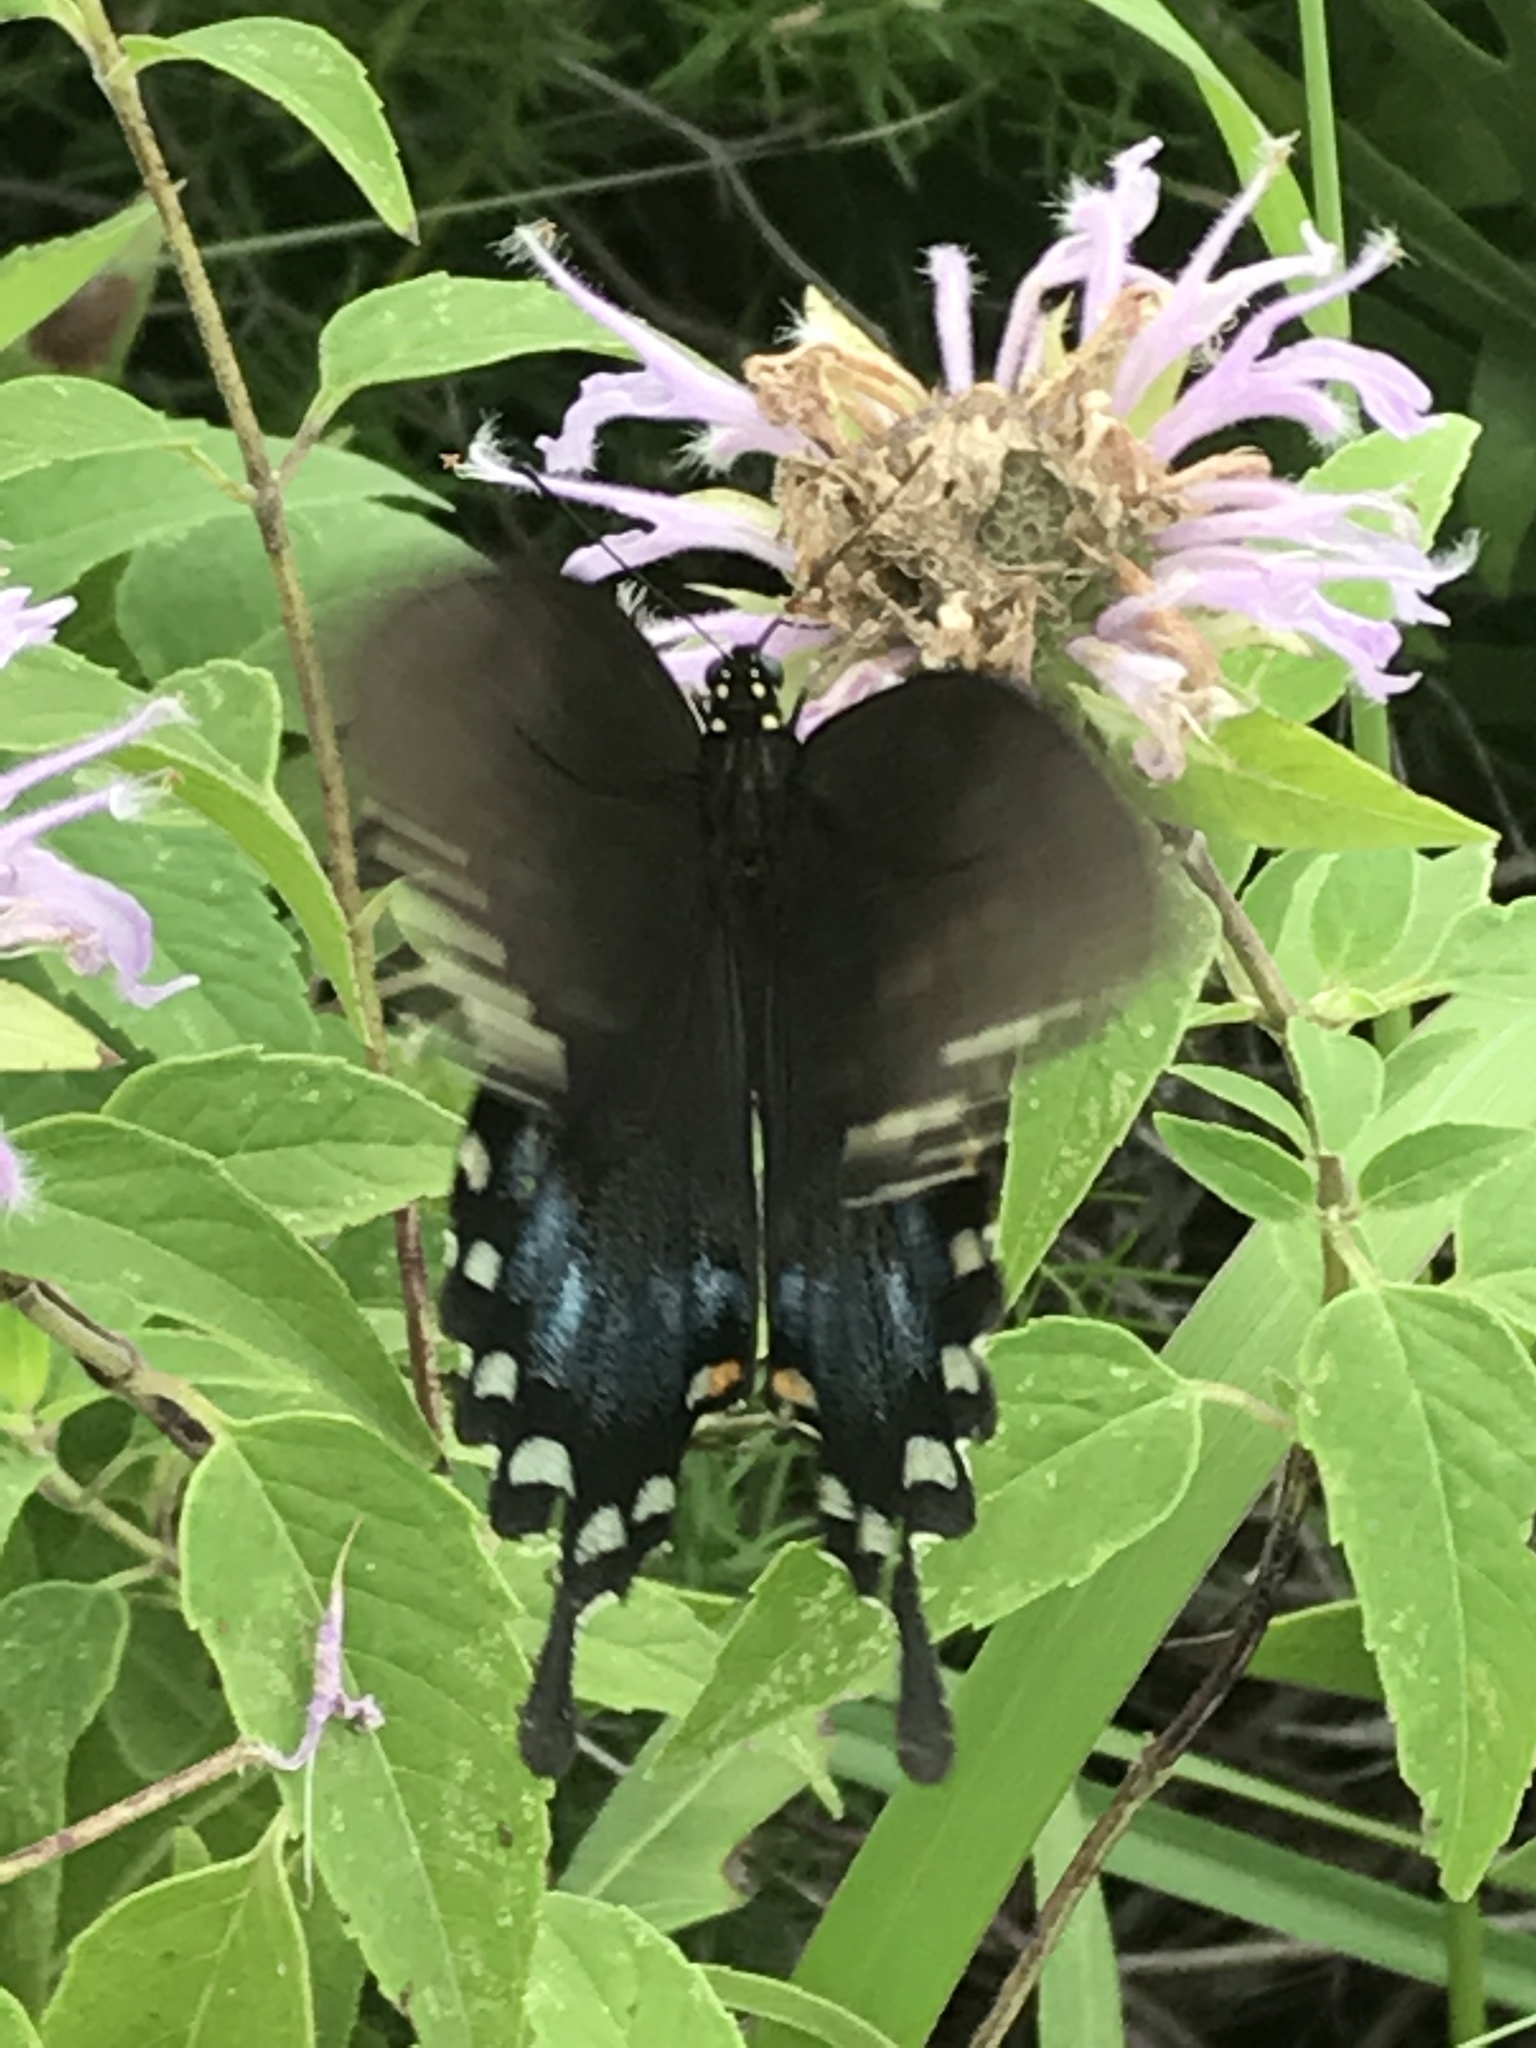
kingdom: Animalia
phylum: Arthropoda
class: Insecta
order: Lepidoptera
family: Papilionidae
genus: Papilio
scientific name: Papilio troilus
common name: Spicebush swallowtail
